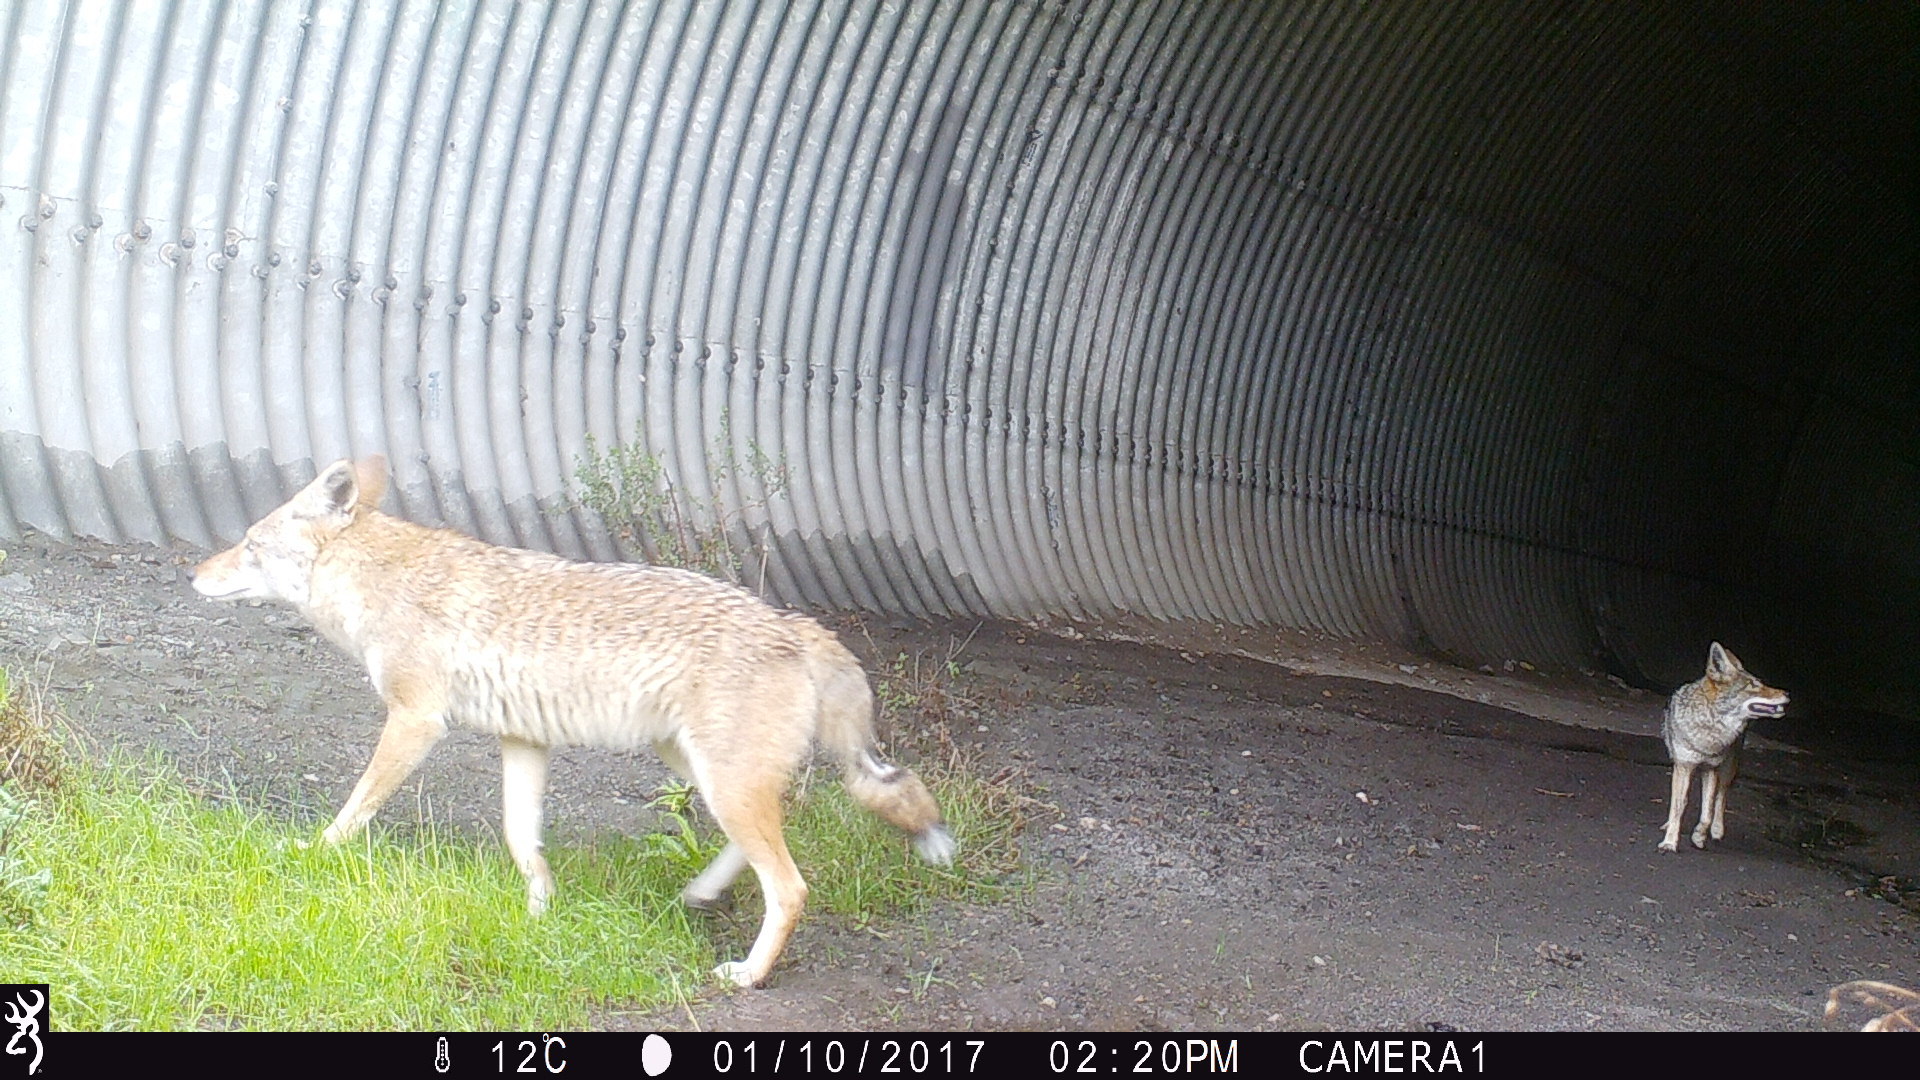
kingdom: Animalia
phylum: Chordata
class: Mammalia
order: Carnivora
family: Canidae
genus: Canis
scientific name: Canis latrans
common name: Coyote
